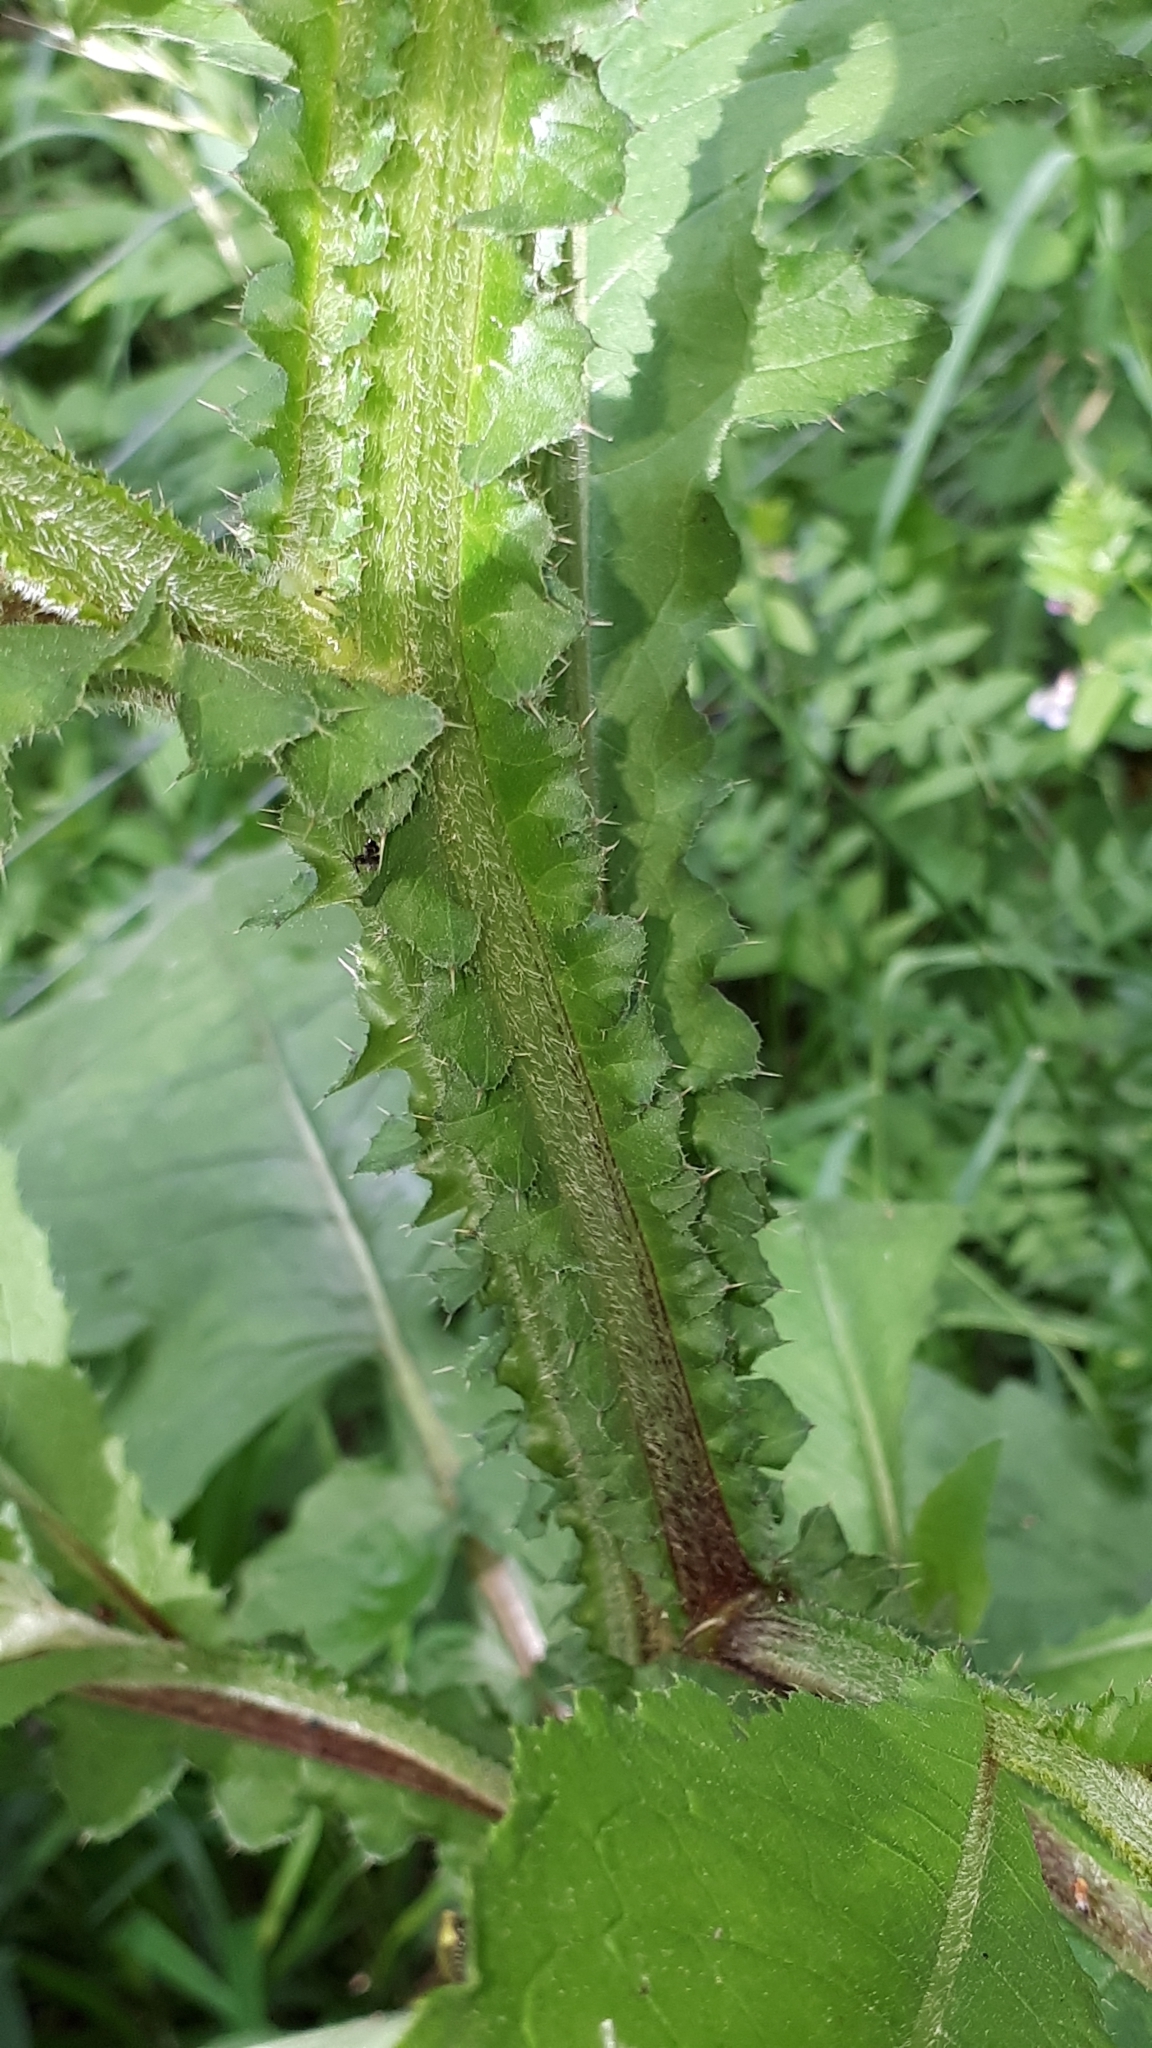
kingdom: Plantae
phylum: Tracheophyta
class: Magnoliopsida
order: Asterales
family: Asteraceae
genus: Carduus
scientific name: Carduus personata
